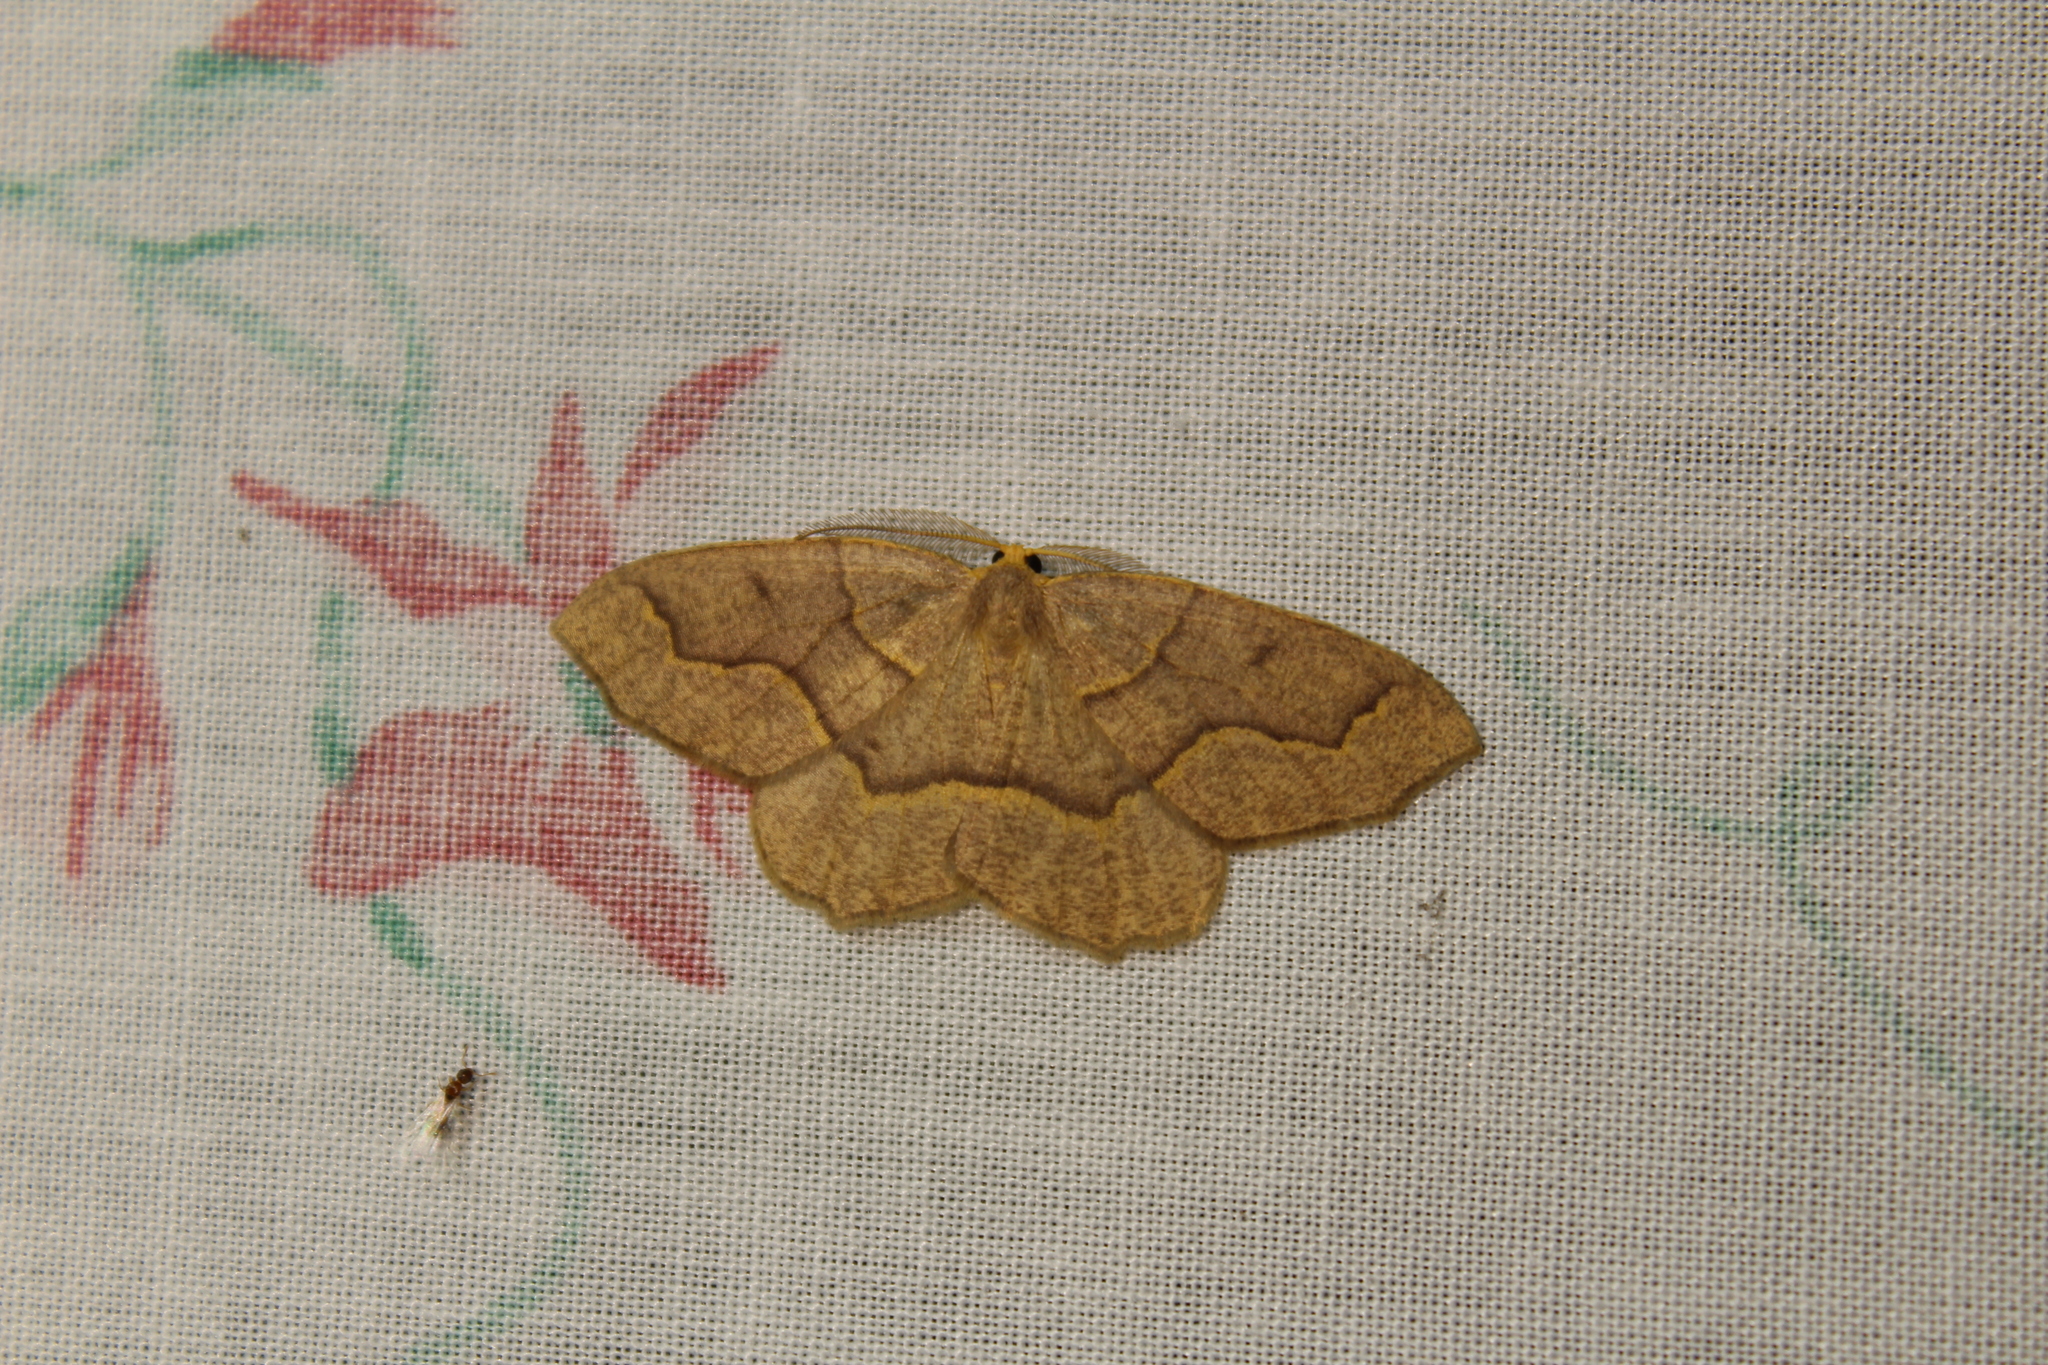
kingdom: Animalia
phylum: Arthropoda
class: Insecta
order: Lepidoptera
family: Geometridae
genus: Lambdina
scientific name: Lambdina fiscellaria
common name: Hemlock looper
